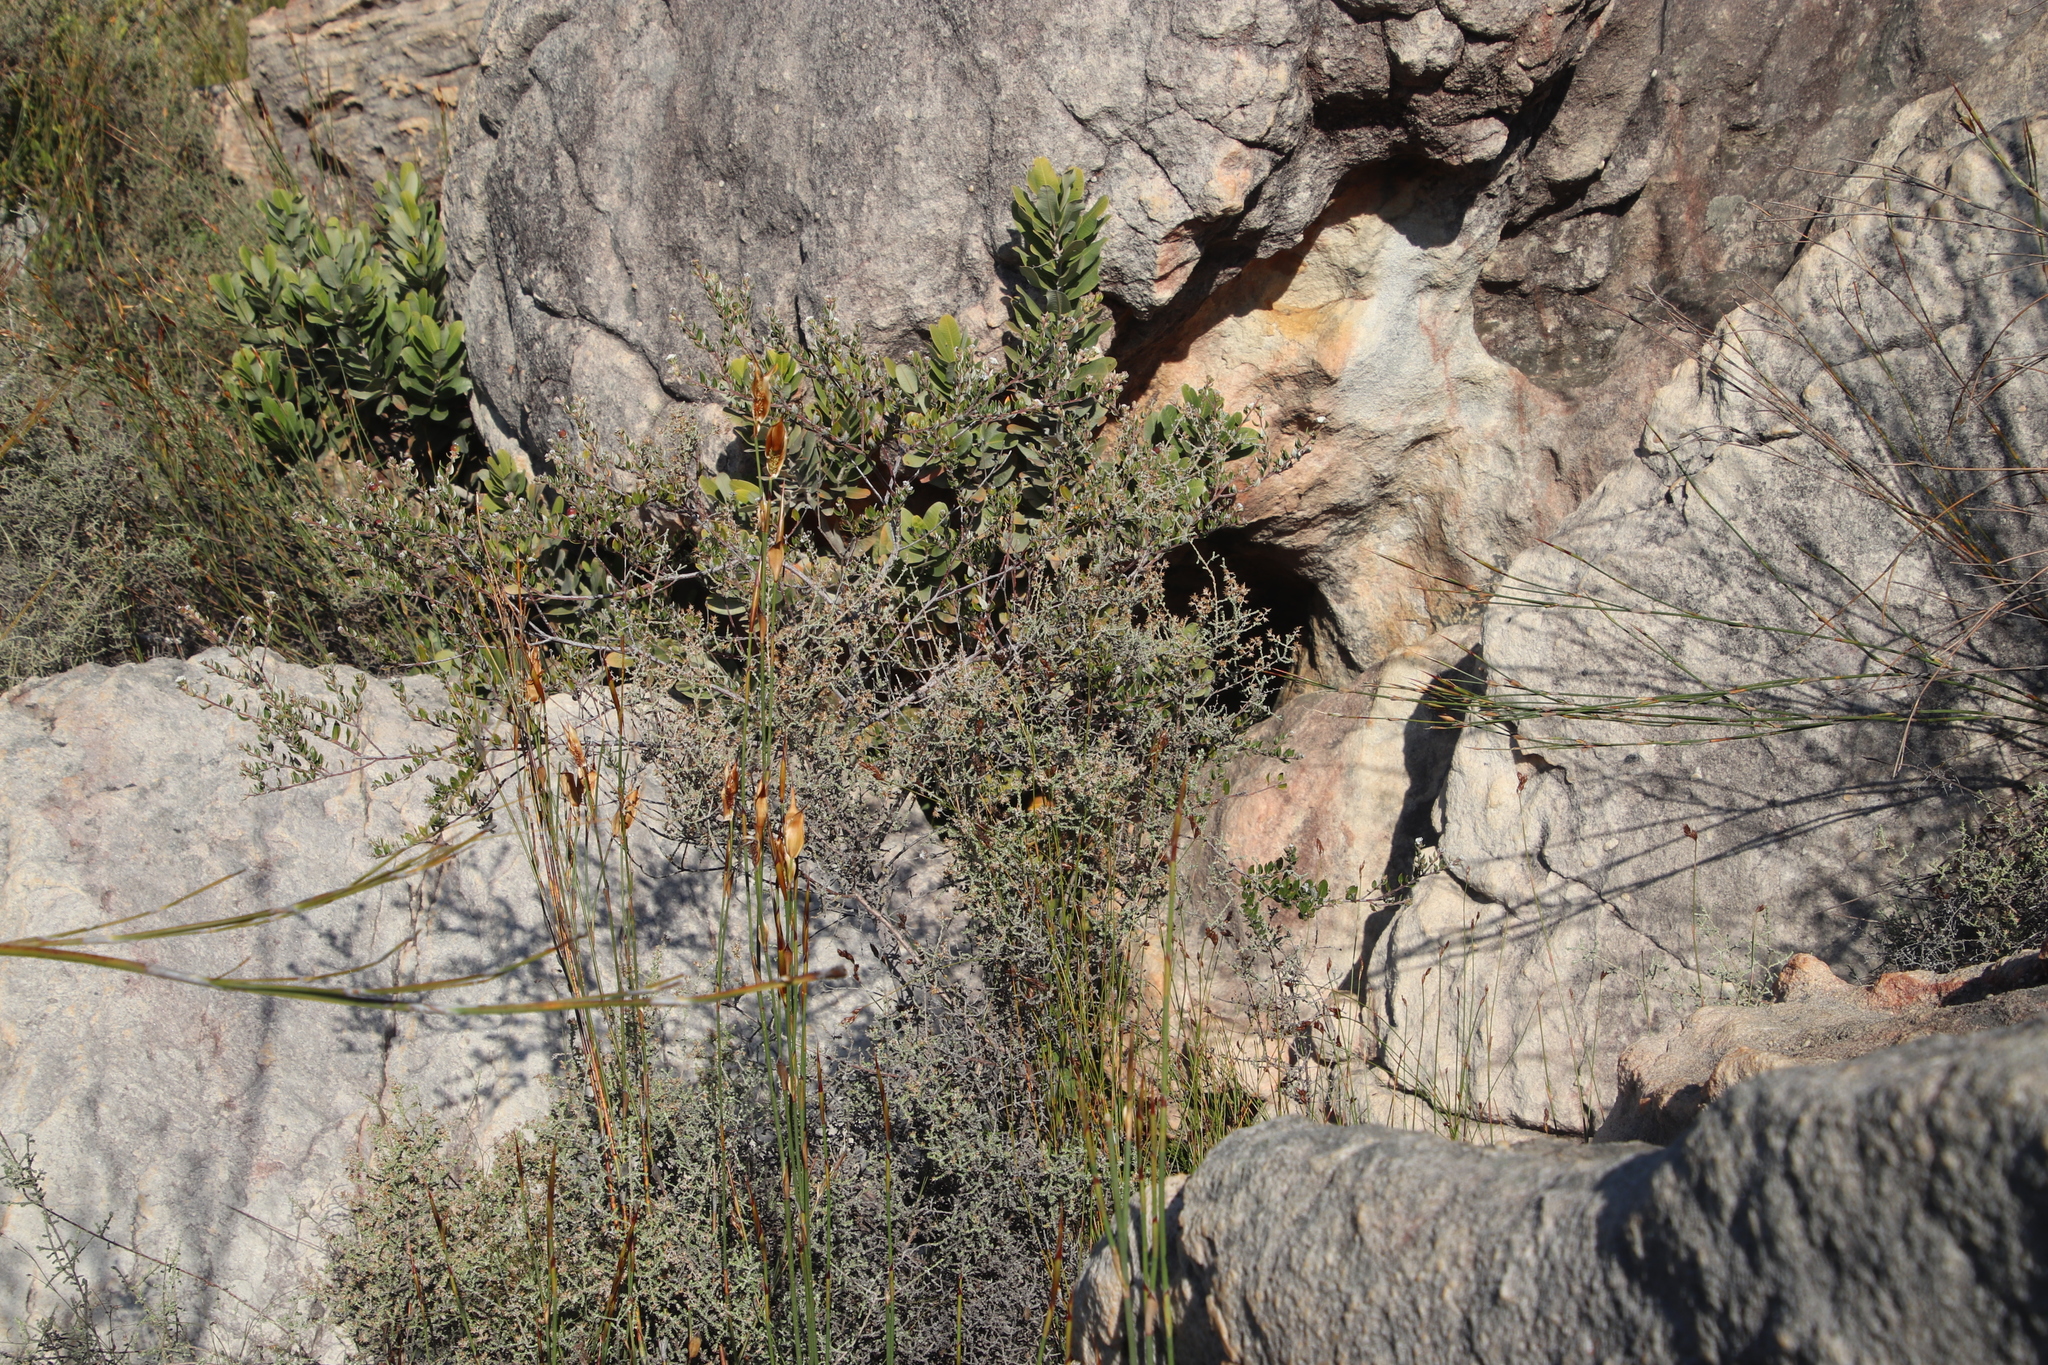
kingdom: Plantae
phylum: Tracheophyta
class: Magnoliopsida
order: Rosales
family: Rhamnaceae
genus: Phylica
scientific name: Phylica nervosa
